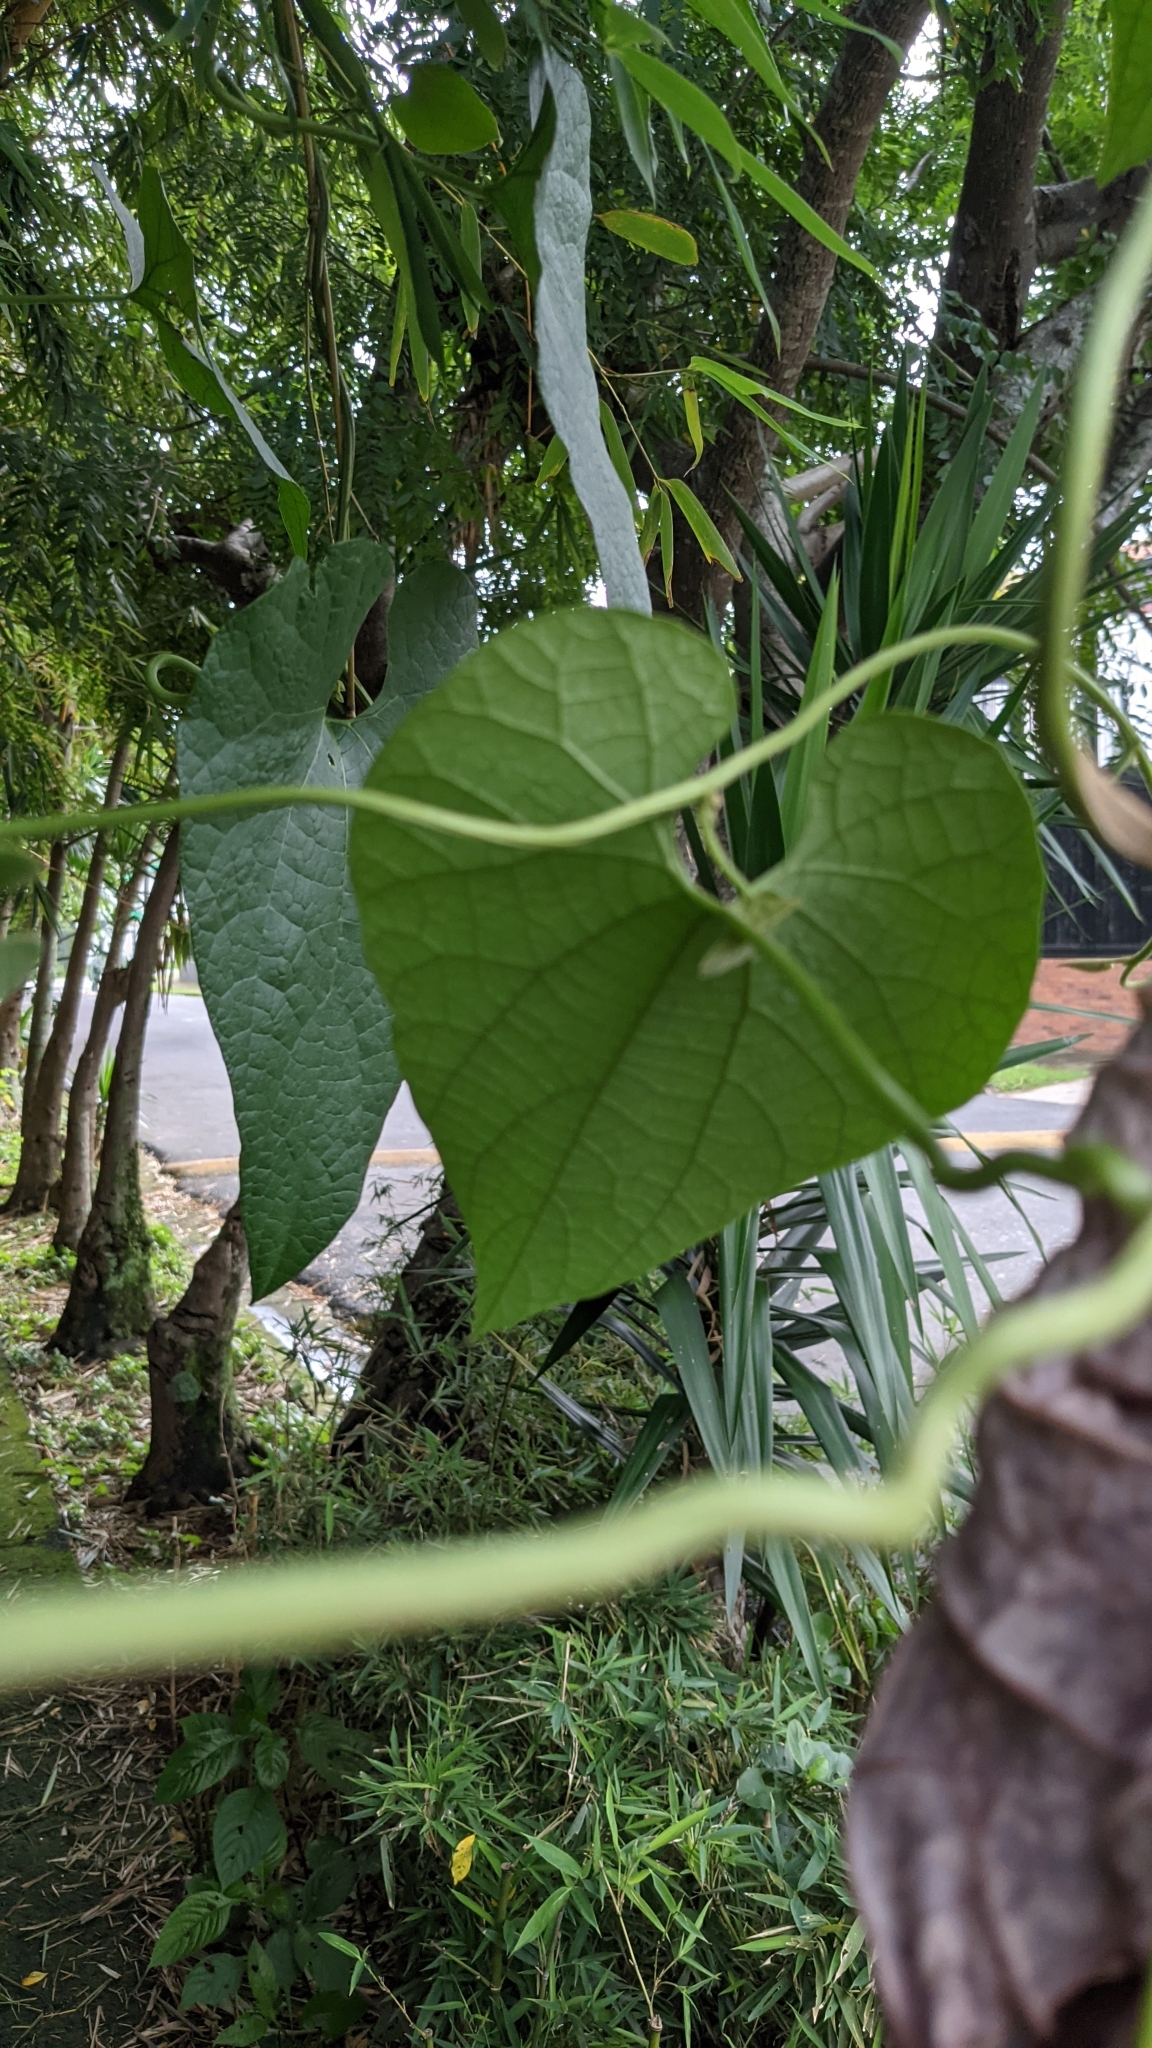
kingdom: Plantae
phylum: Tracheophyta
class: Magnoliopsida
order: Piperales
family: Aristolochiaceae
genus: Aristolochia
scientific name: Aristolochia grandiflora
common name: Pelicanflower
